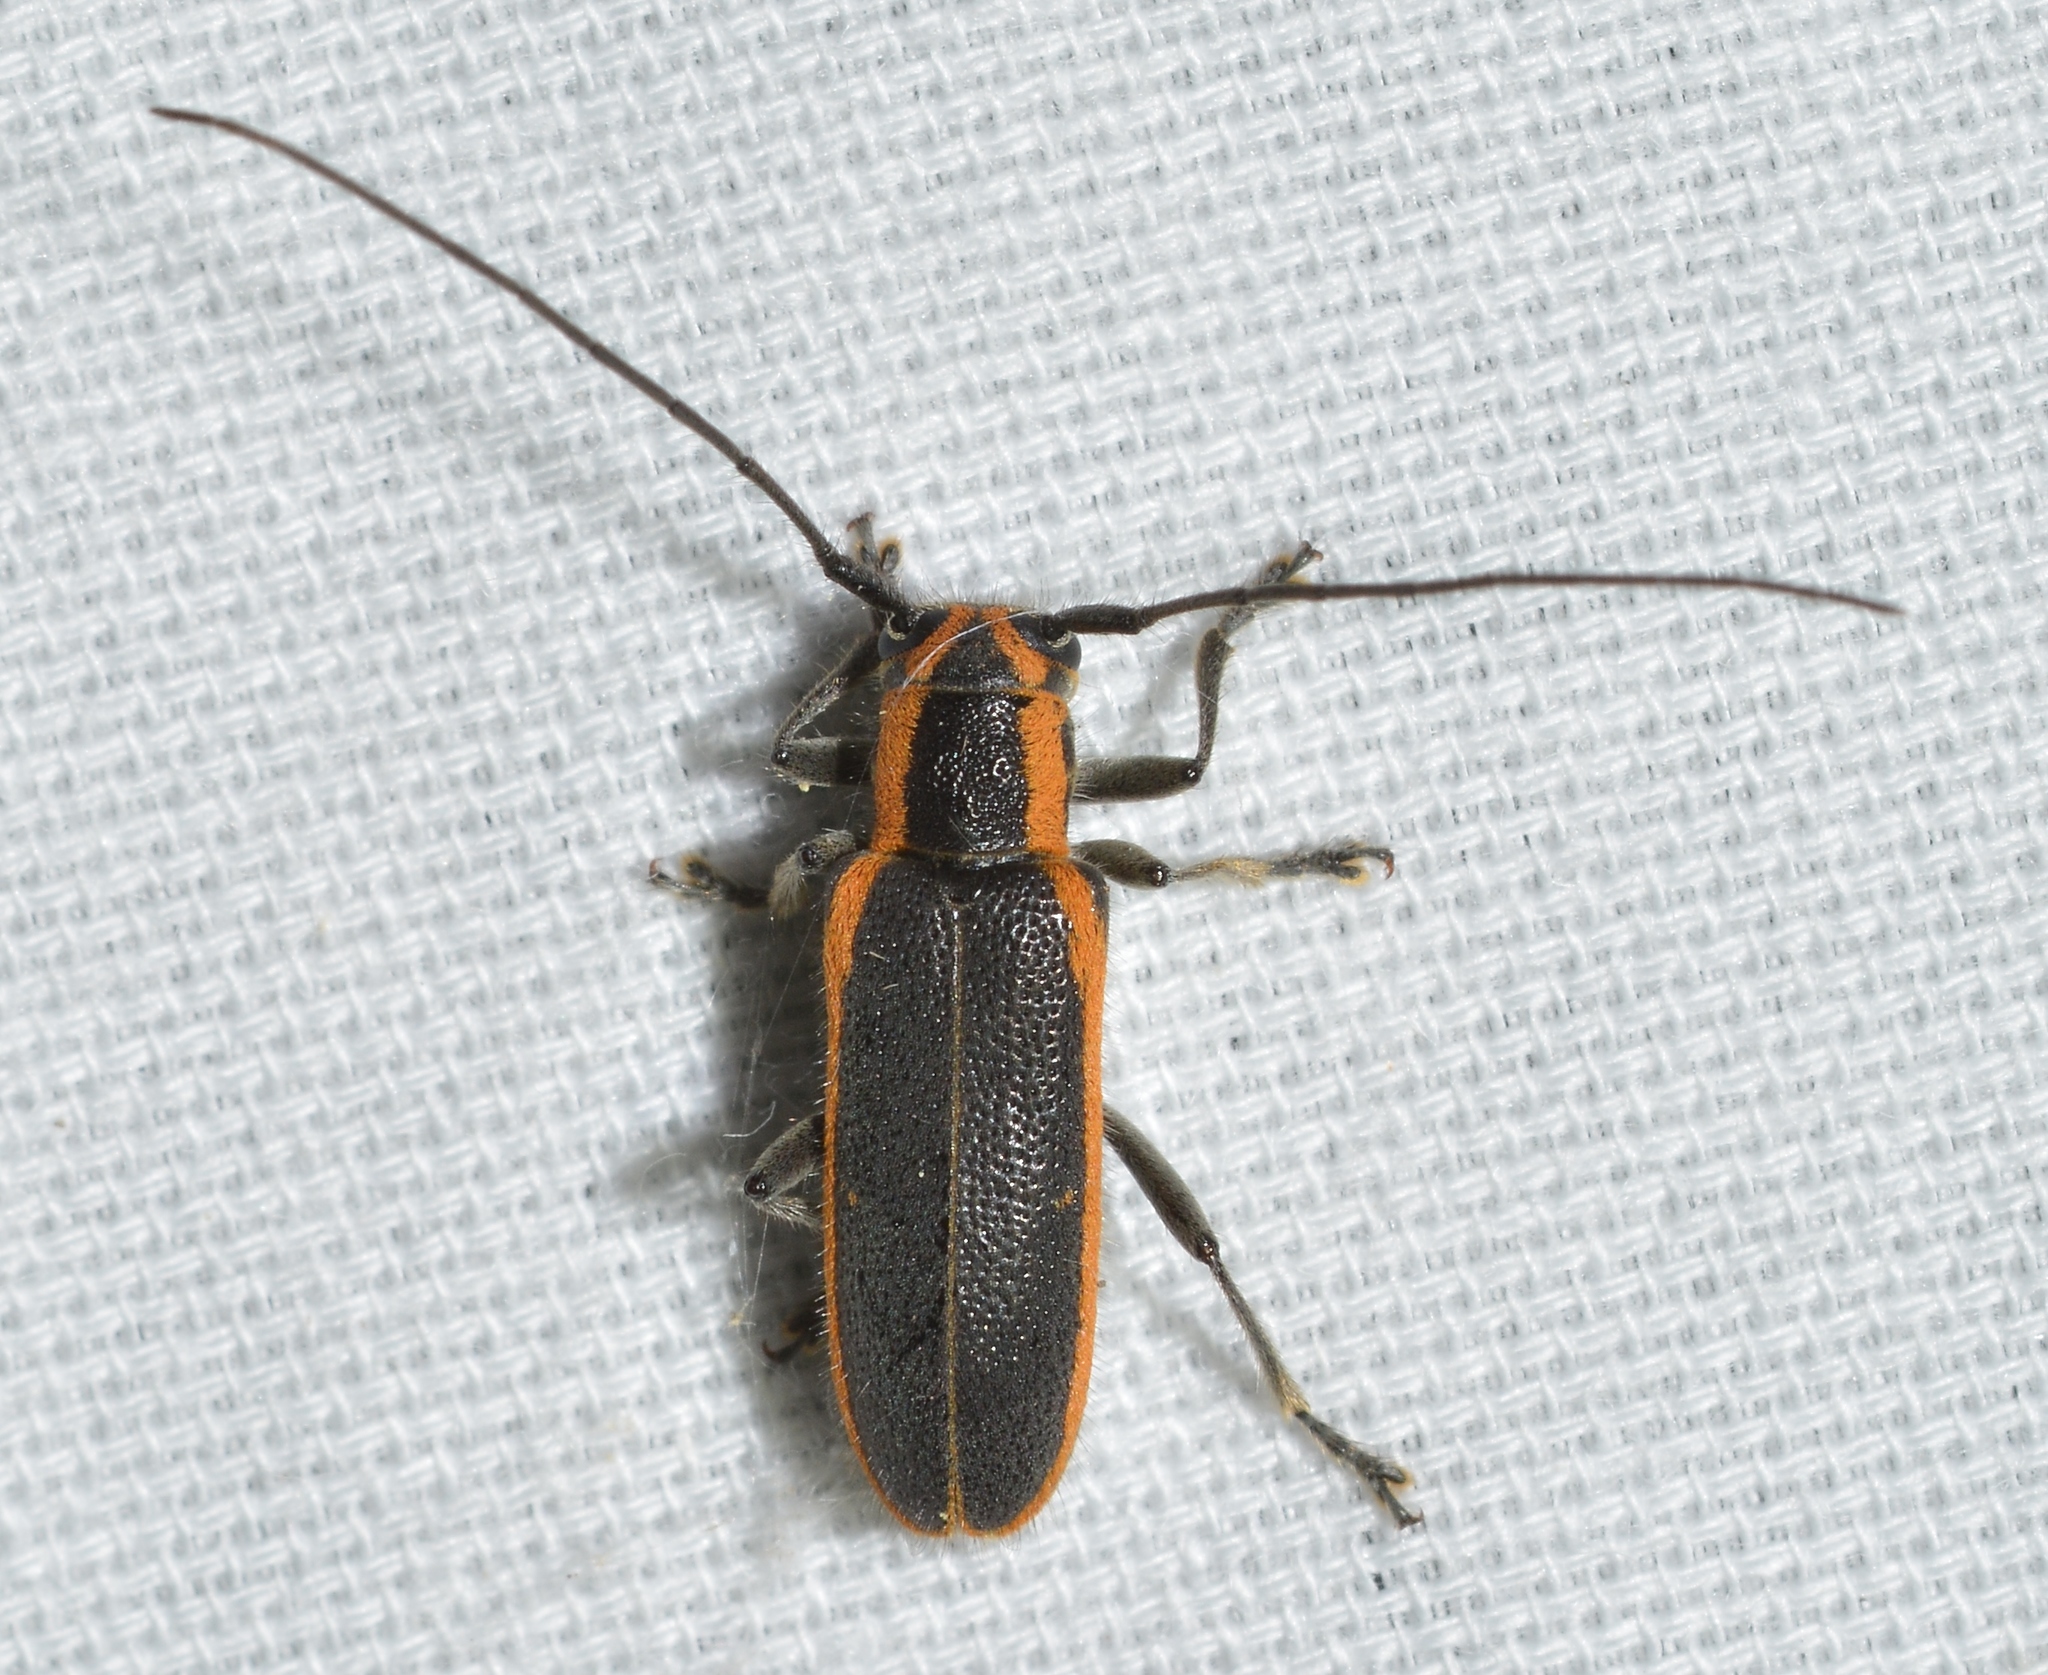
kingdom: Animalia
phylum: Arthropoda
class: Insecta
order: Coleoptera
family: Cerambycidae
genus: Saperda
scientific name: Saperda lateralis
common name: Red-edged saperda
